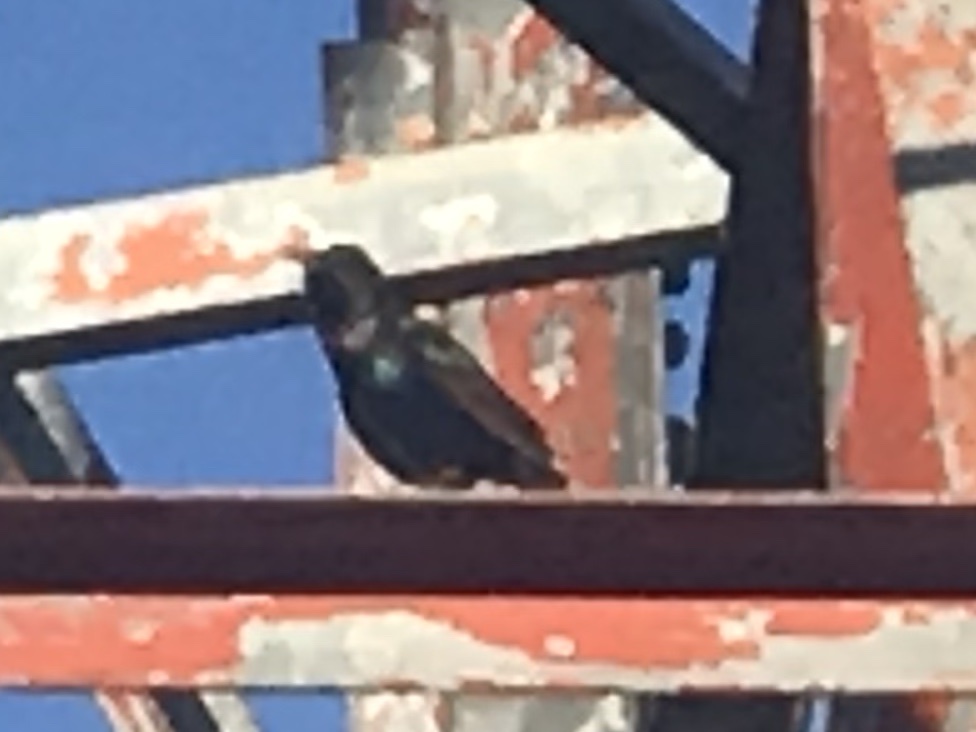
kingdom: Animalia
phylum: Chordata
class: Aves
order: Passeriformes
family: Sturnidae
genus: Sturnus
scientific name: Sturnus vulgaris
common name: Common starling
